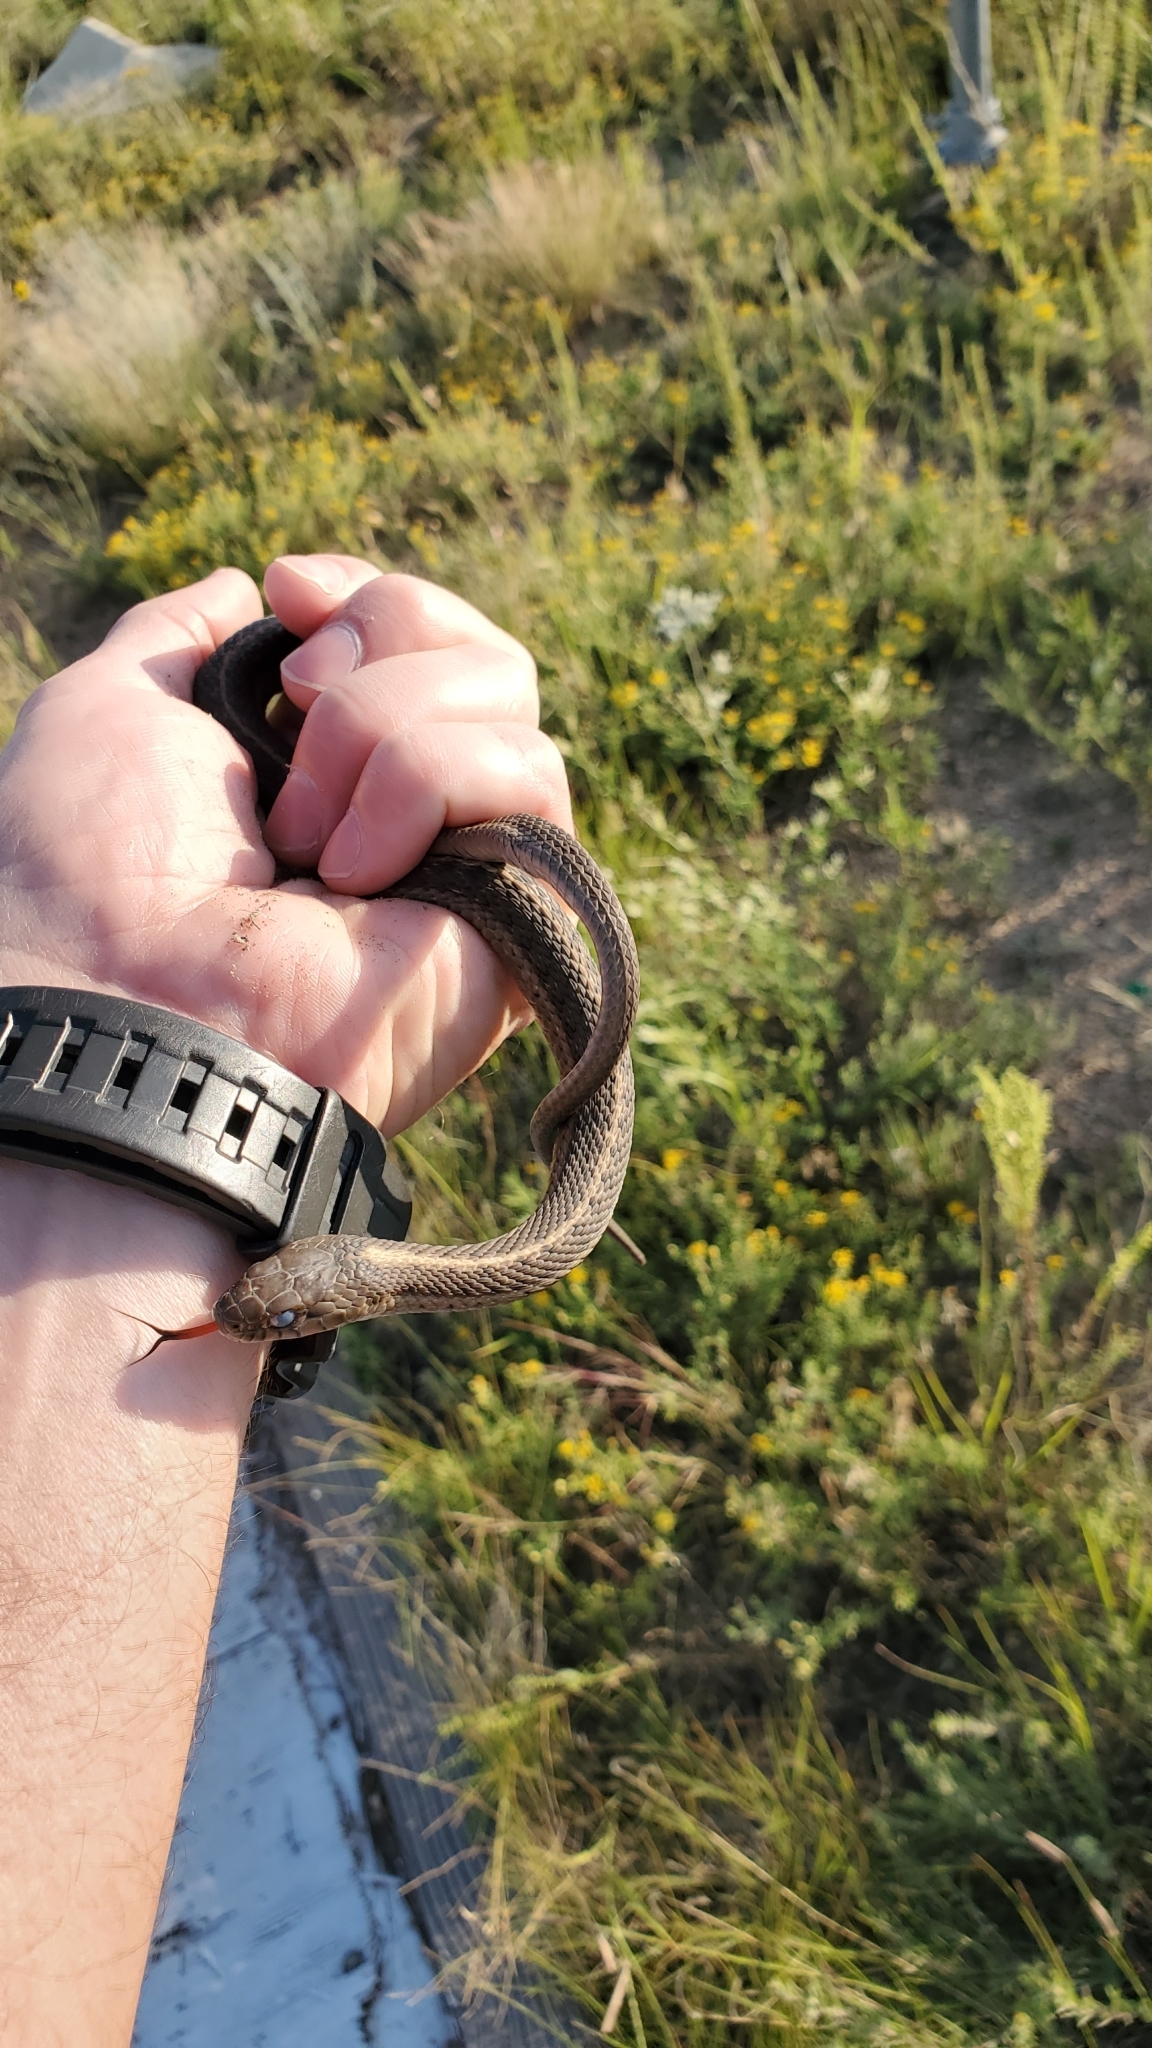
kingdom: Animalia
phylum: Chordata
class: Squamata
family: Colubridae
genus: Thamnophis
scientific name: Thamnophis elegans
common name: Western terrestrial garter snake
